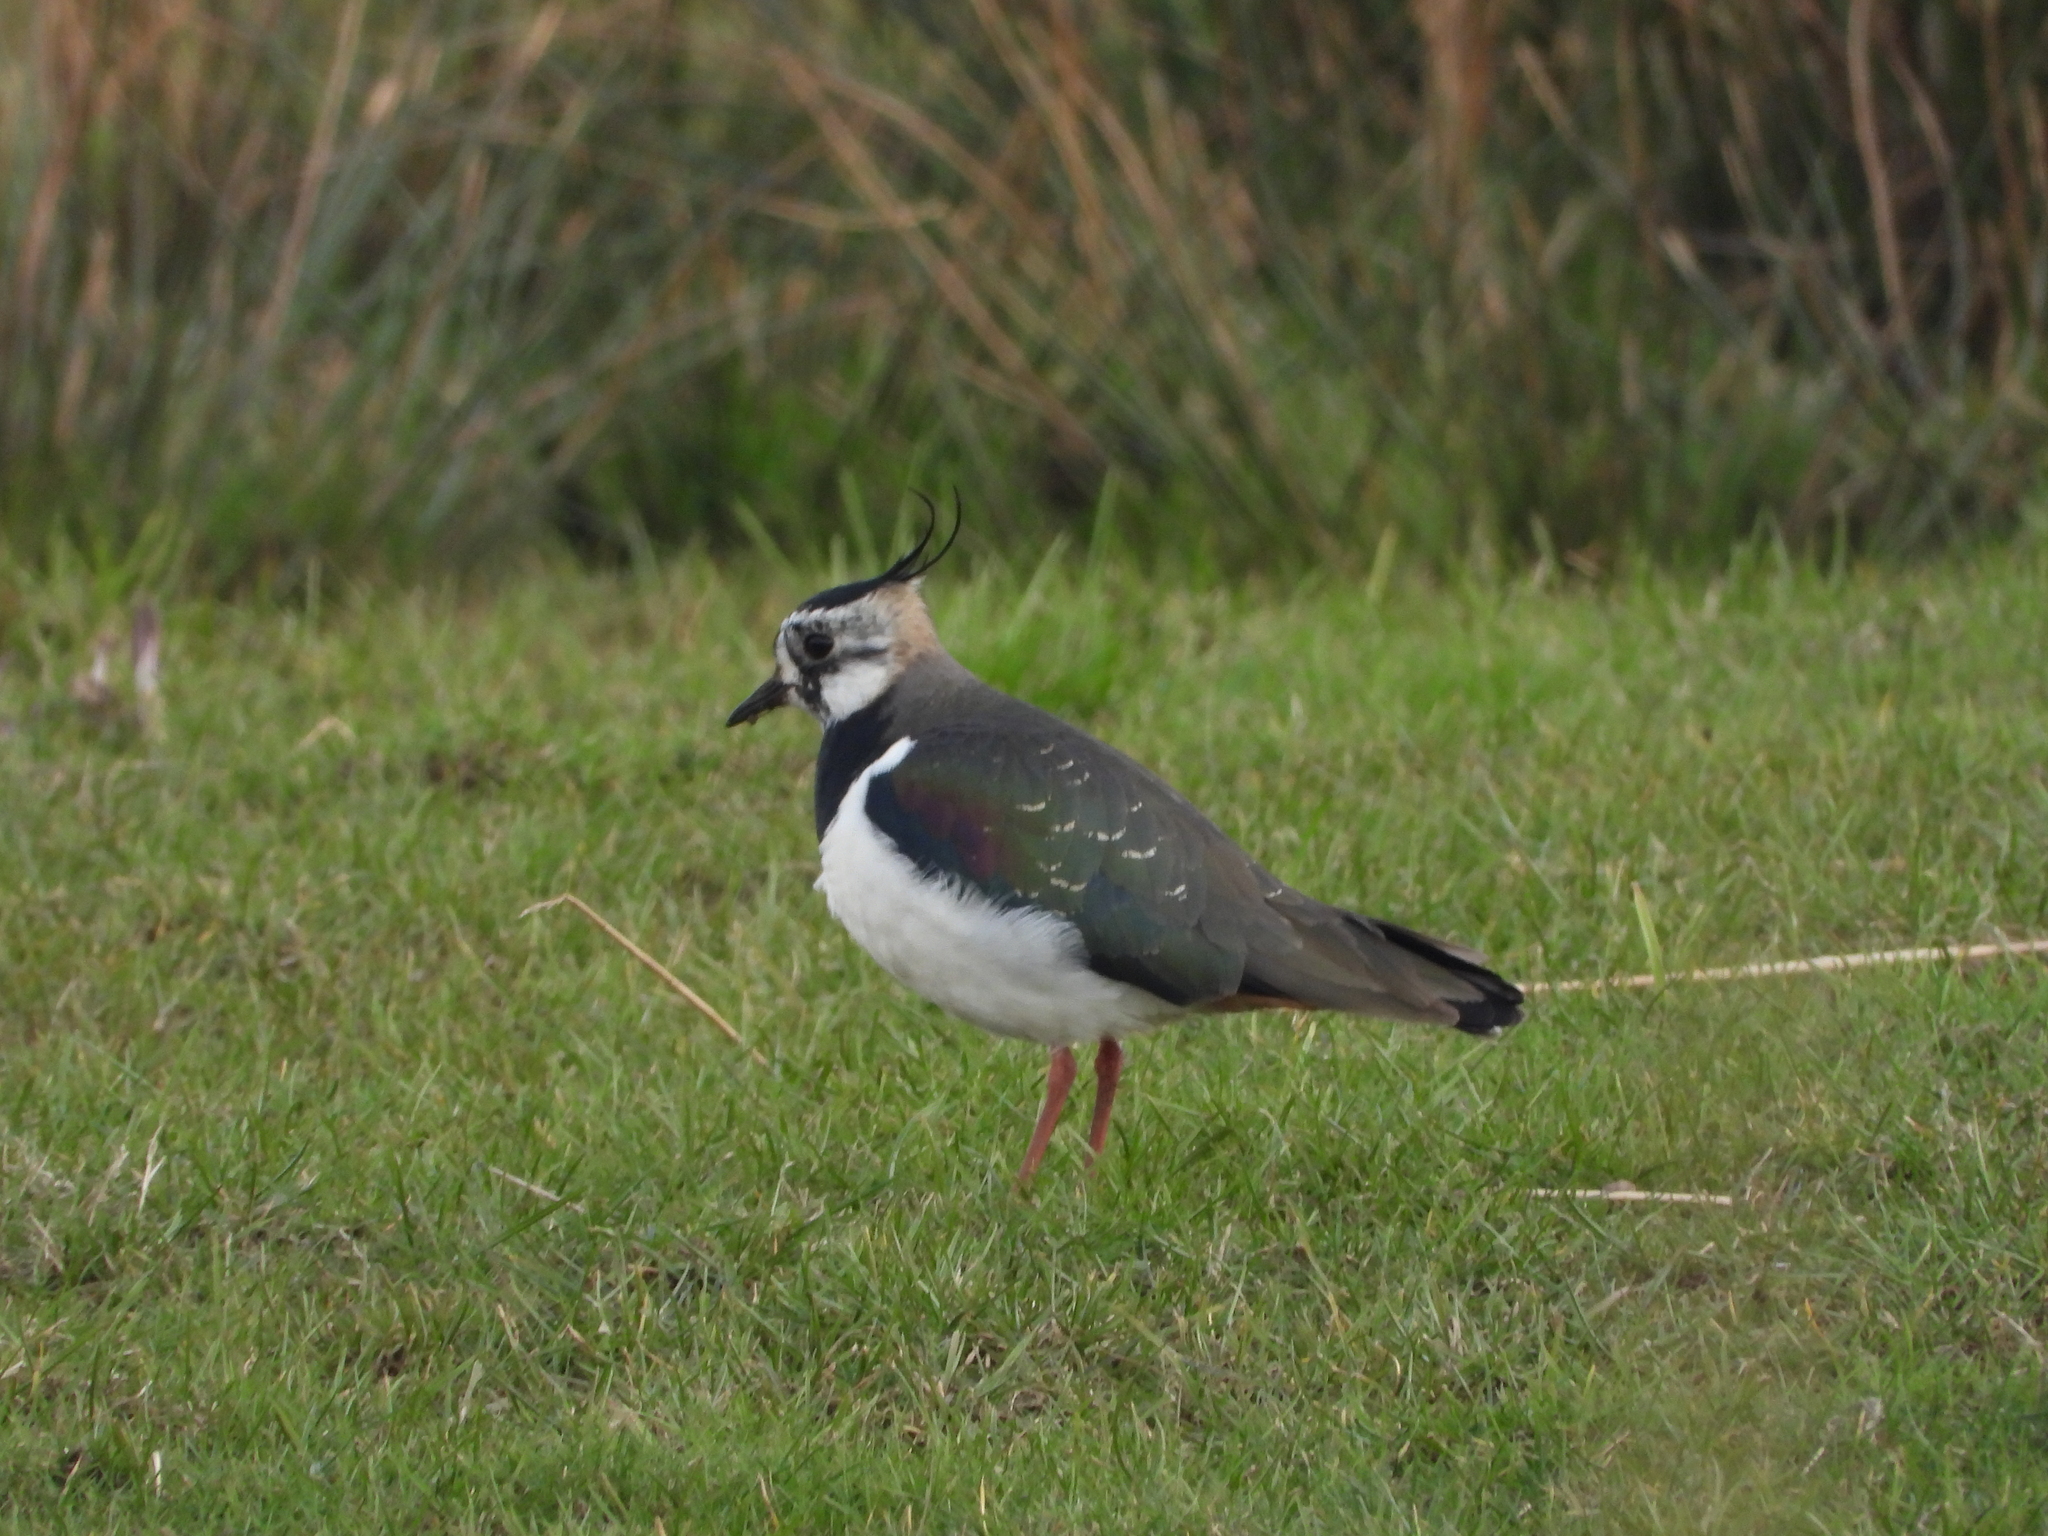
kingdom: Animalia
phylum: Chordata
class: Aves
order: Charadriiformes
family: Charadriidae
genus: Vanellus
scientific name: Vanellus vanellus
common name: Northern lapwing
